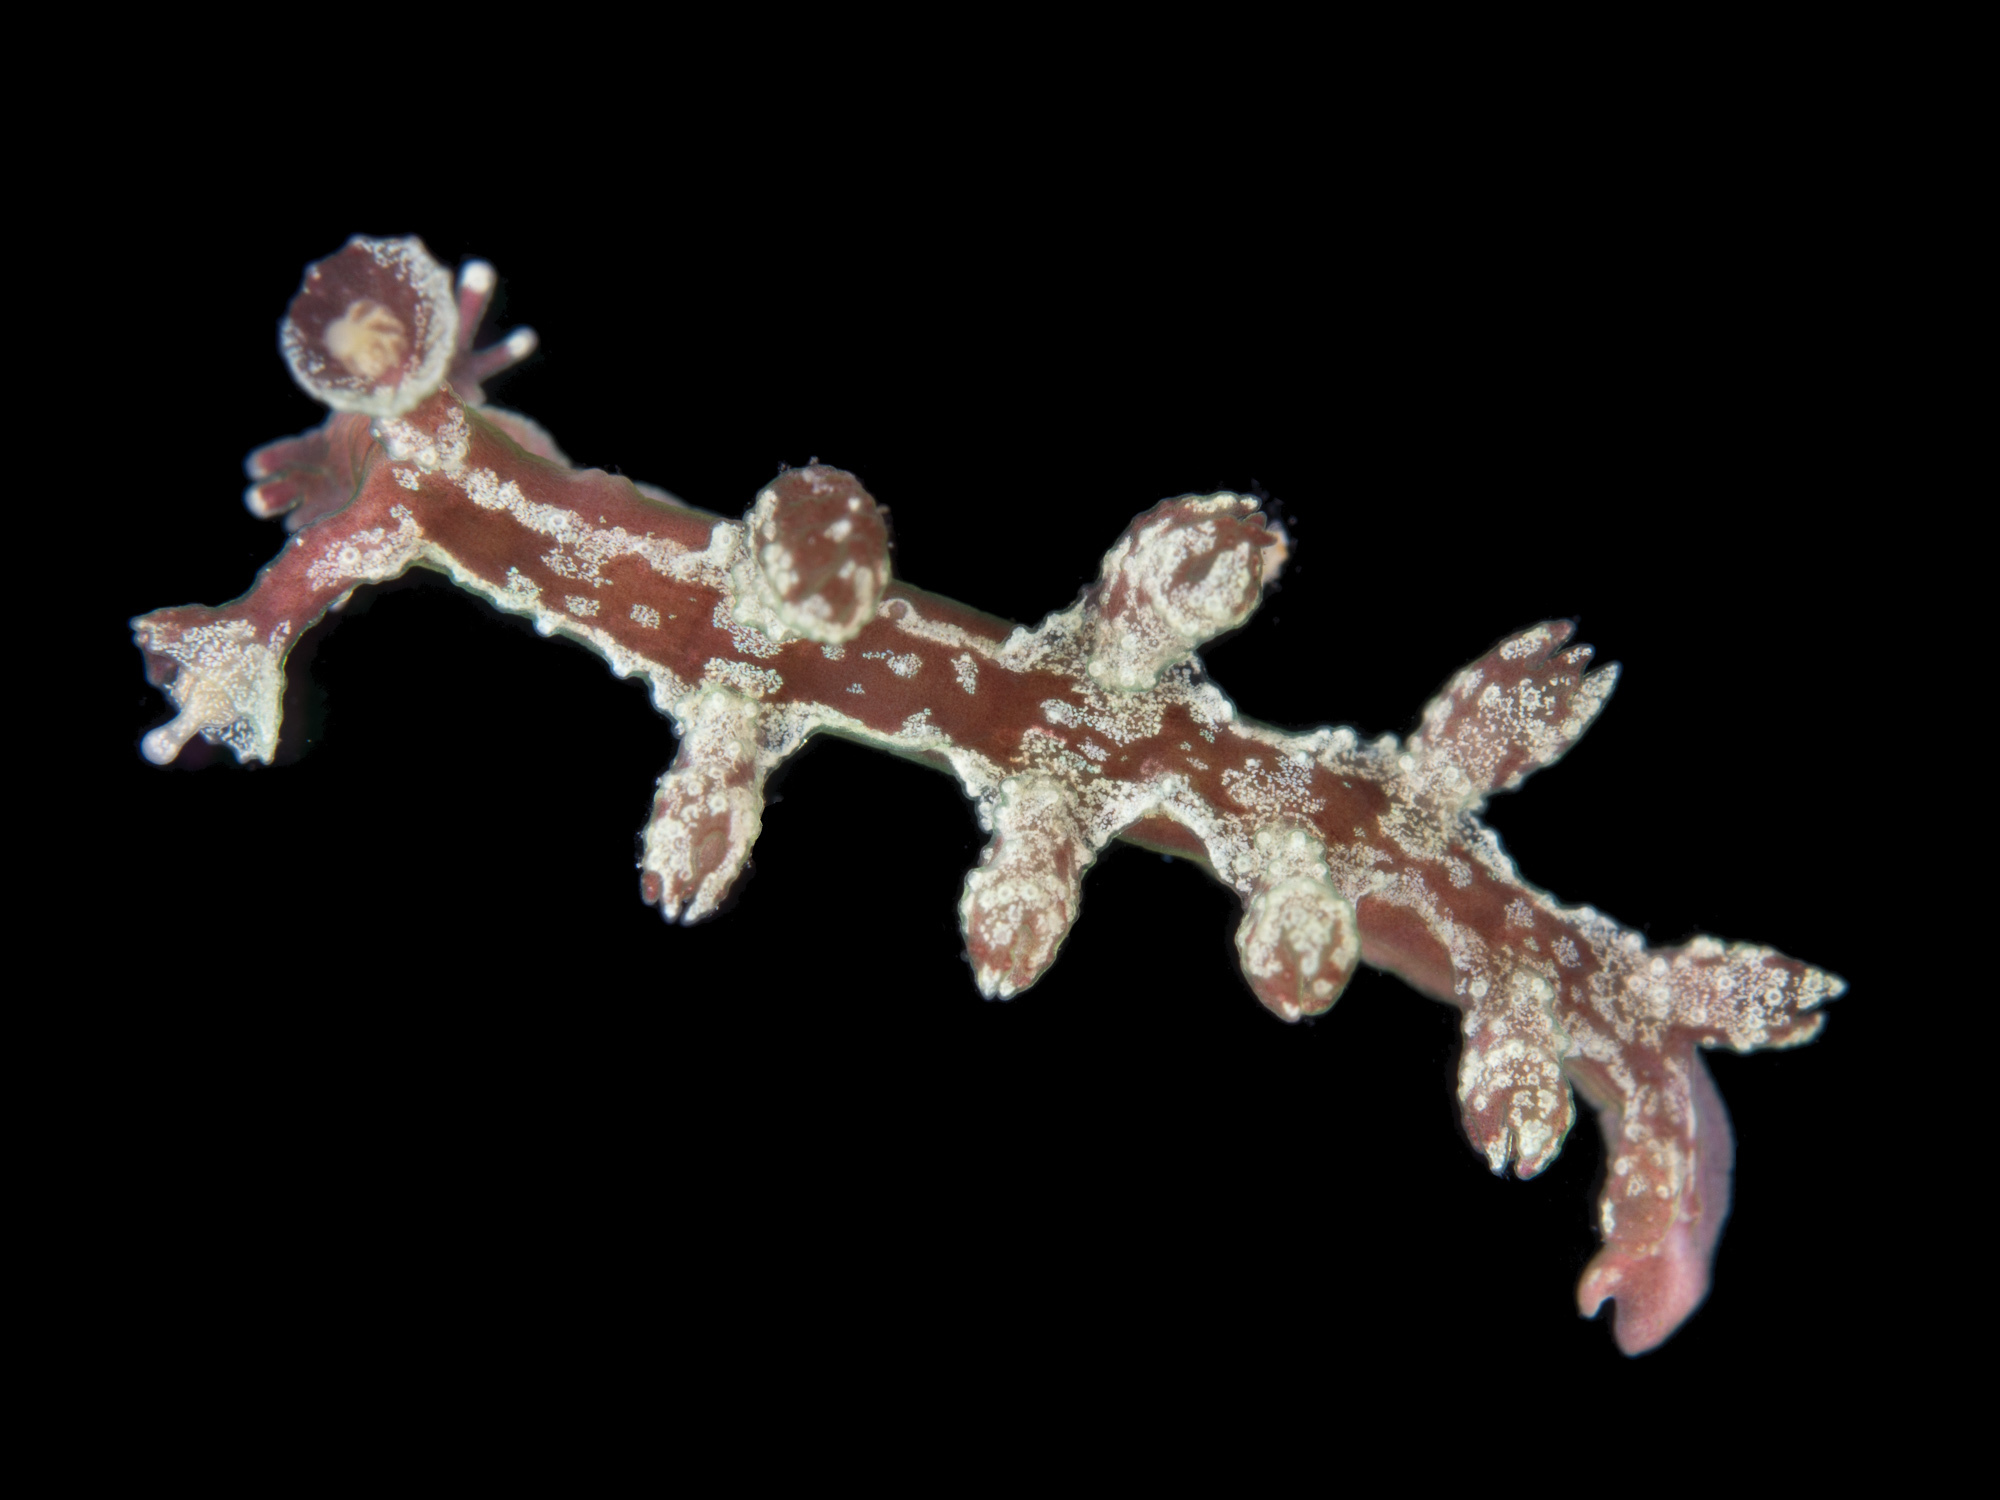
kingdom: Animalia
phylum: Mollusca
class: Gastropoda
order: Nudibranchia
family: Hancockiidae
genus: Hancockia
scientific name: Hancockia uncinata
